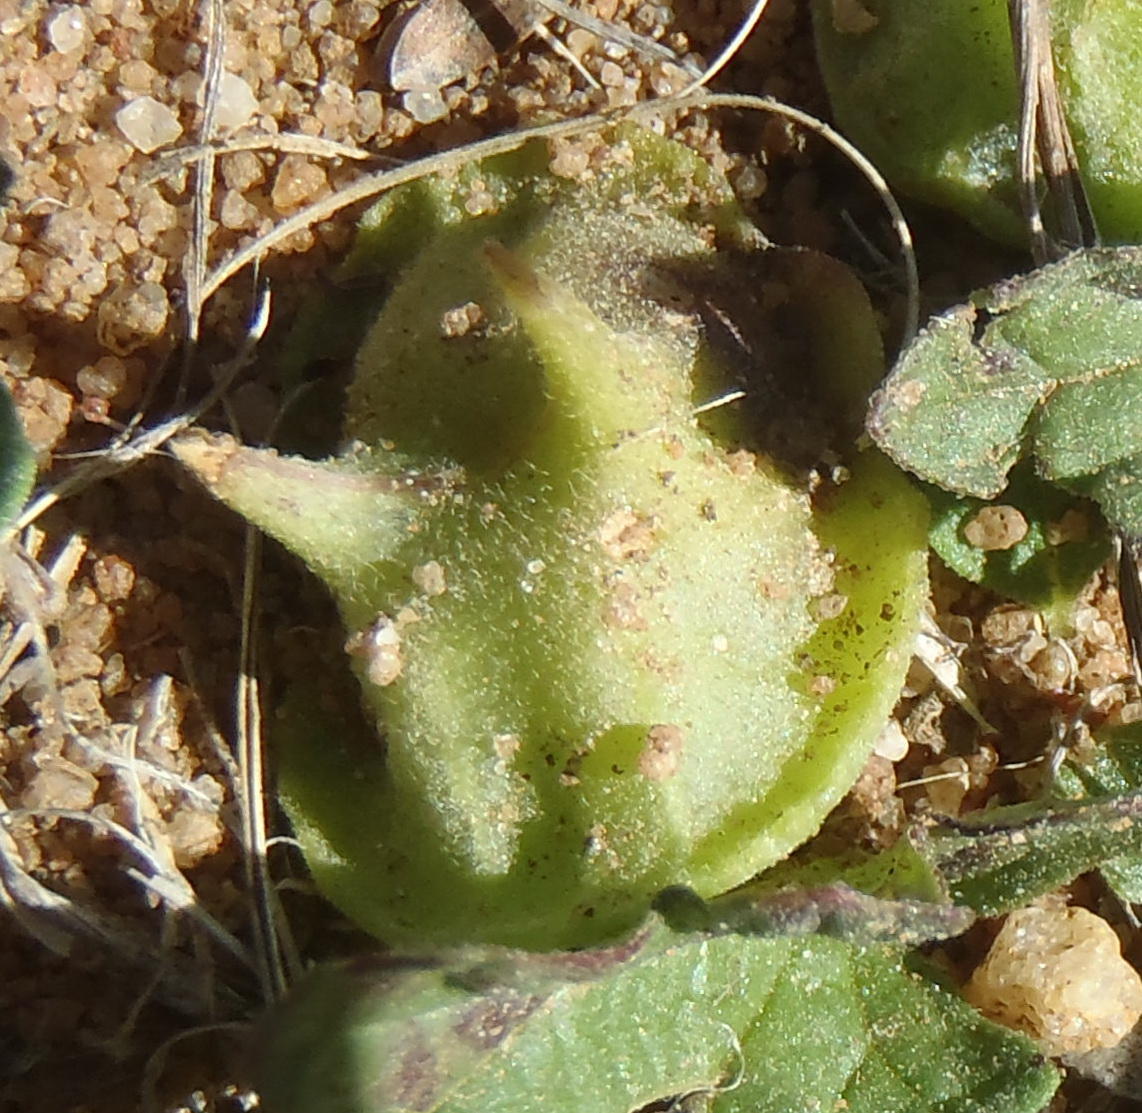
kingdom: Plantae
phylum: Tracheophyta
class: Magnoliopsida
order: Lamiales
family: Pedaliaceae
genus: Dicerocaryum
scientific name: Dicerocaryum eriocarpum
